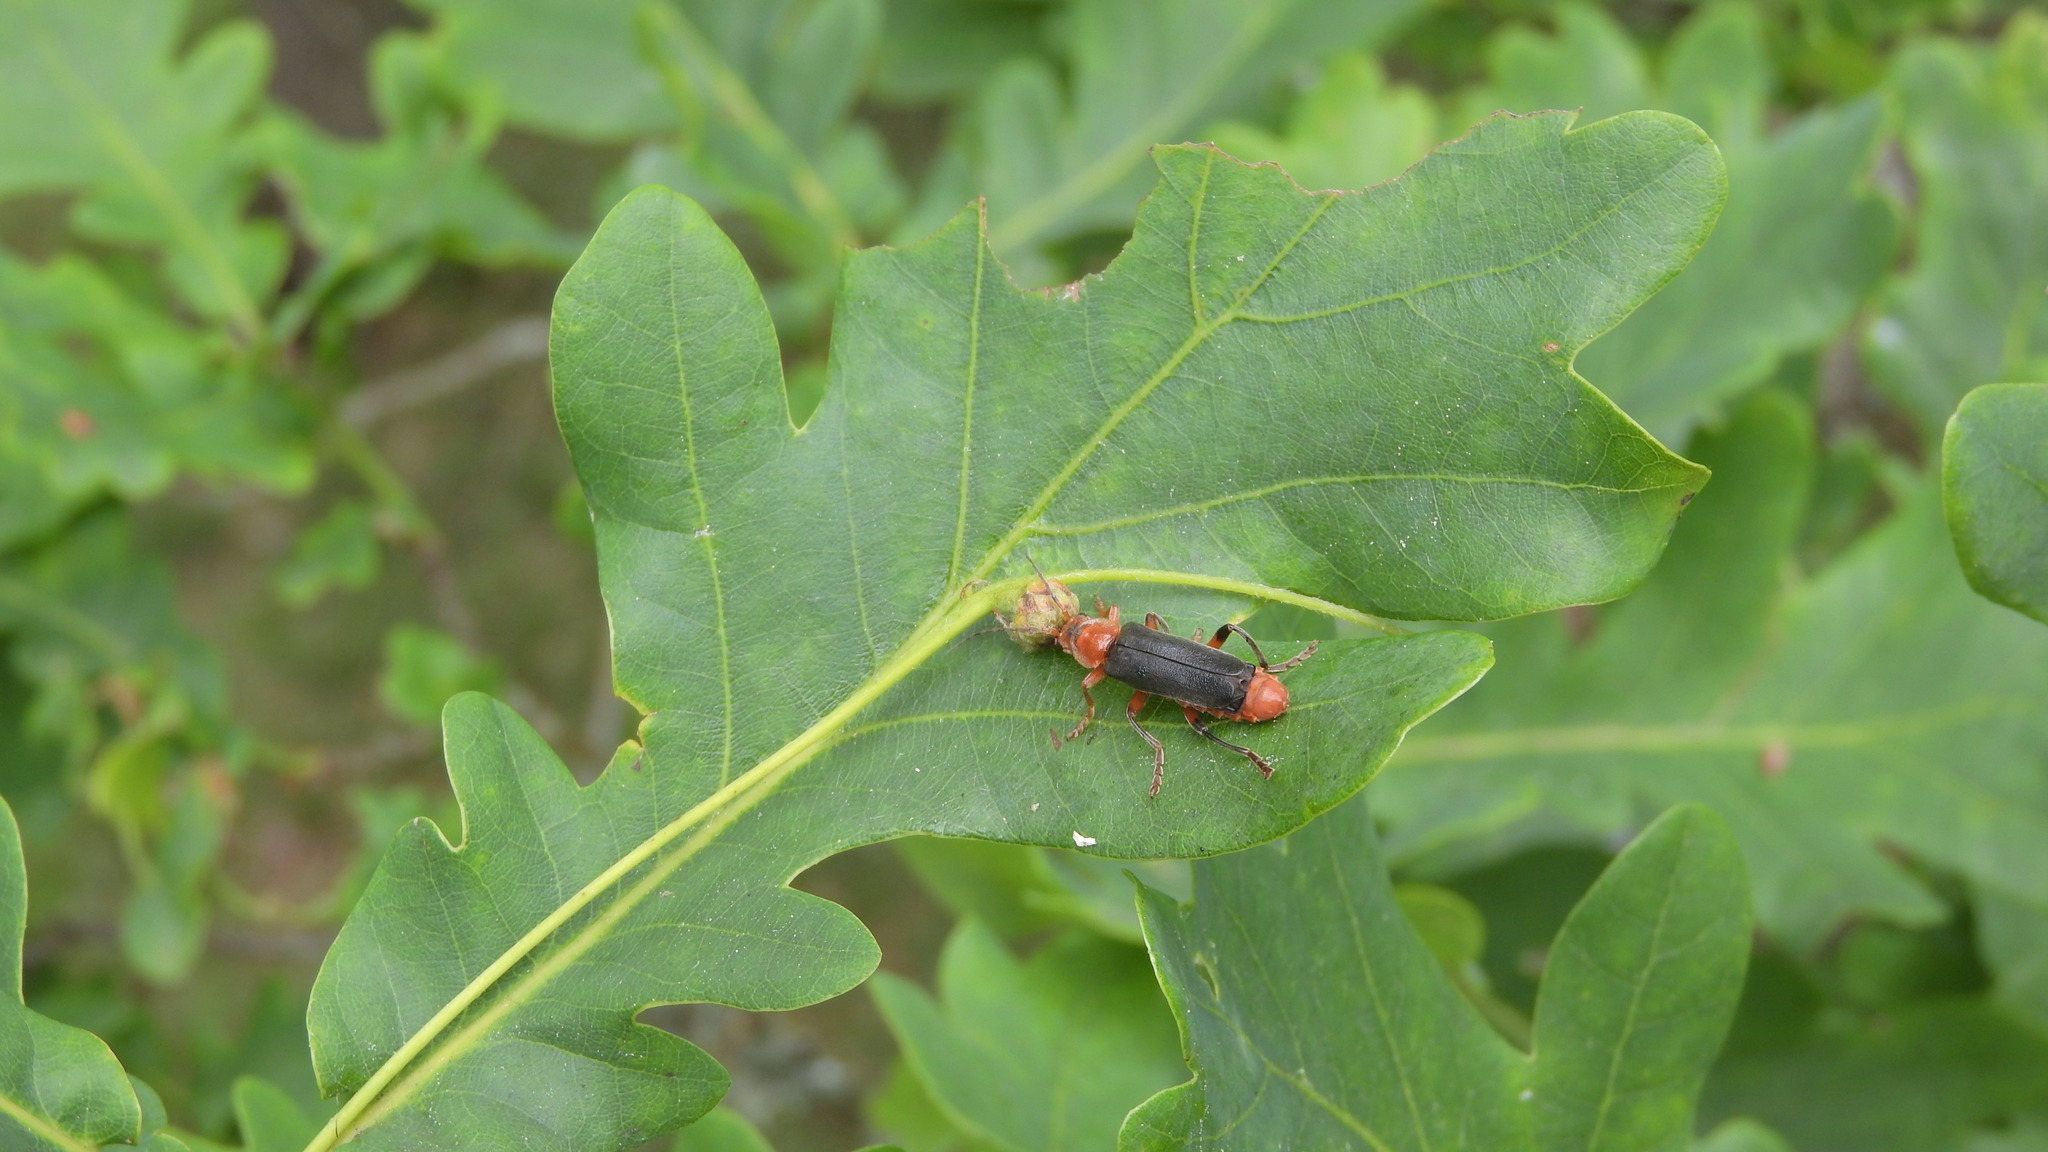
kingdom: Animalia
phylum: Arthropoda
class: Insecta
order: Coleoptera
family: Cantharidae
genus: Cantharis
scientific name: Cantharis livida
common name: Livid soldier beetle
